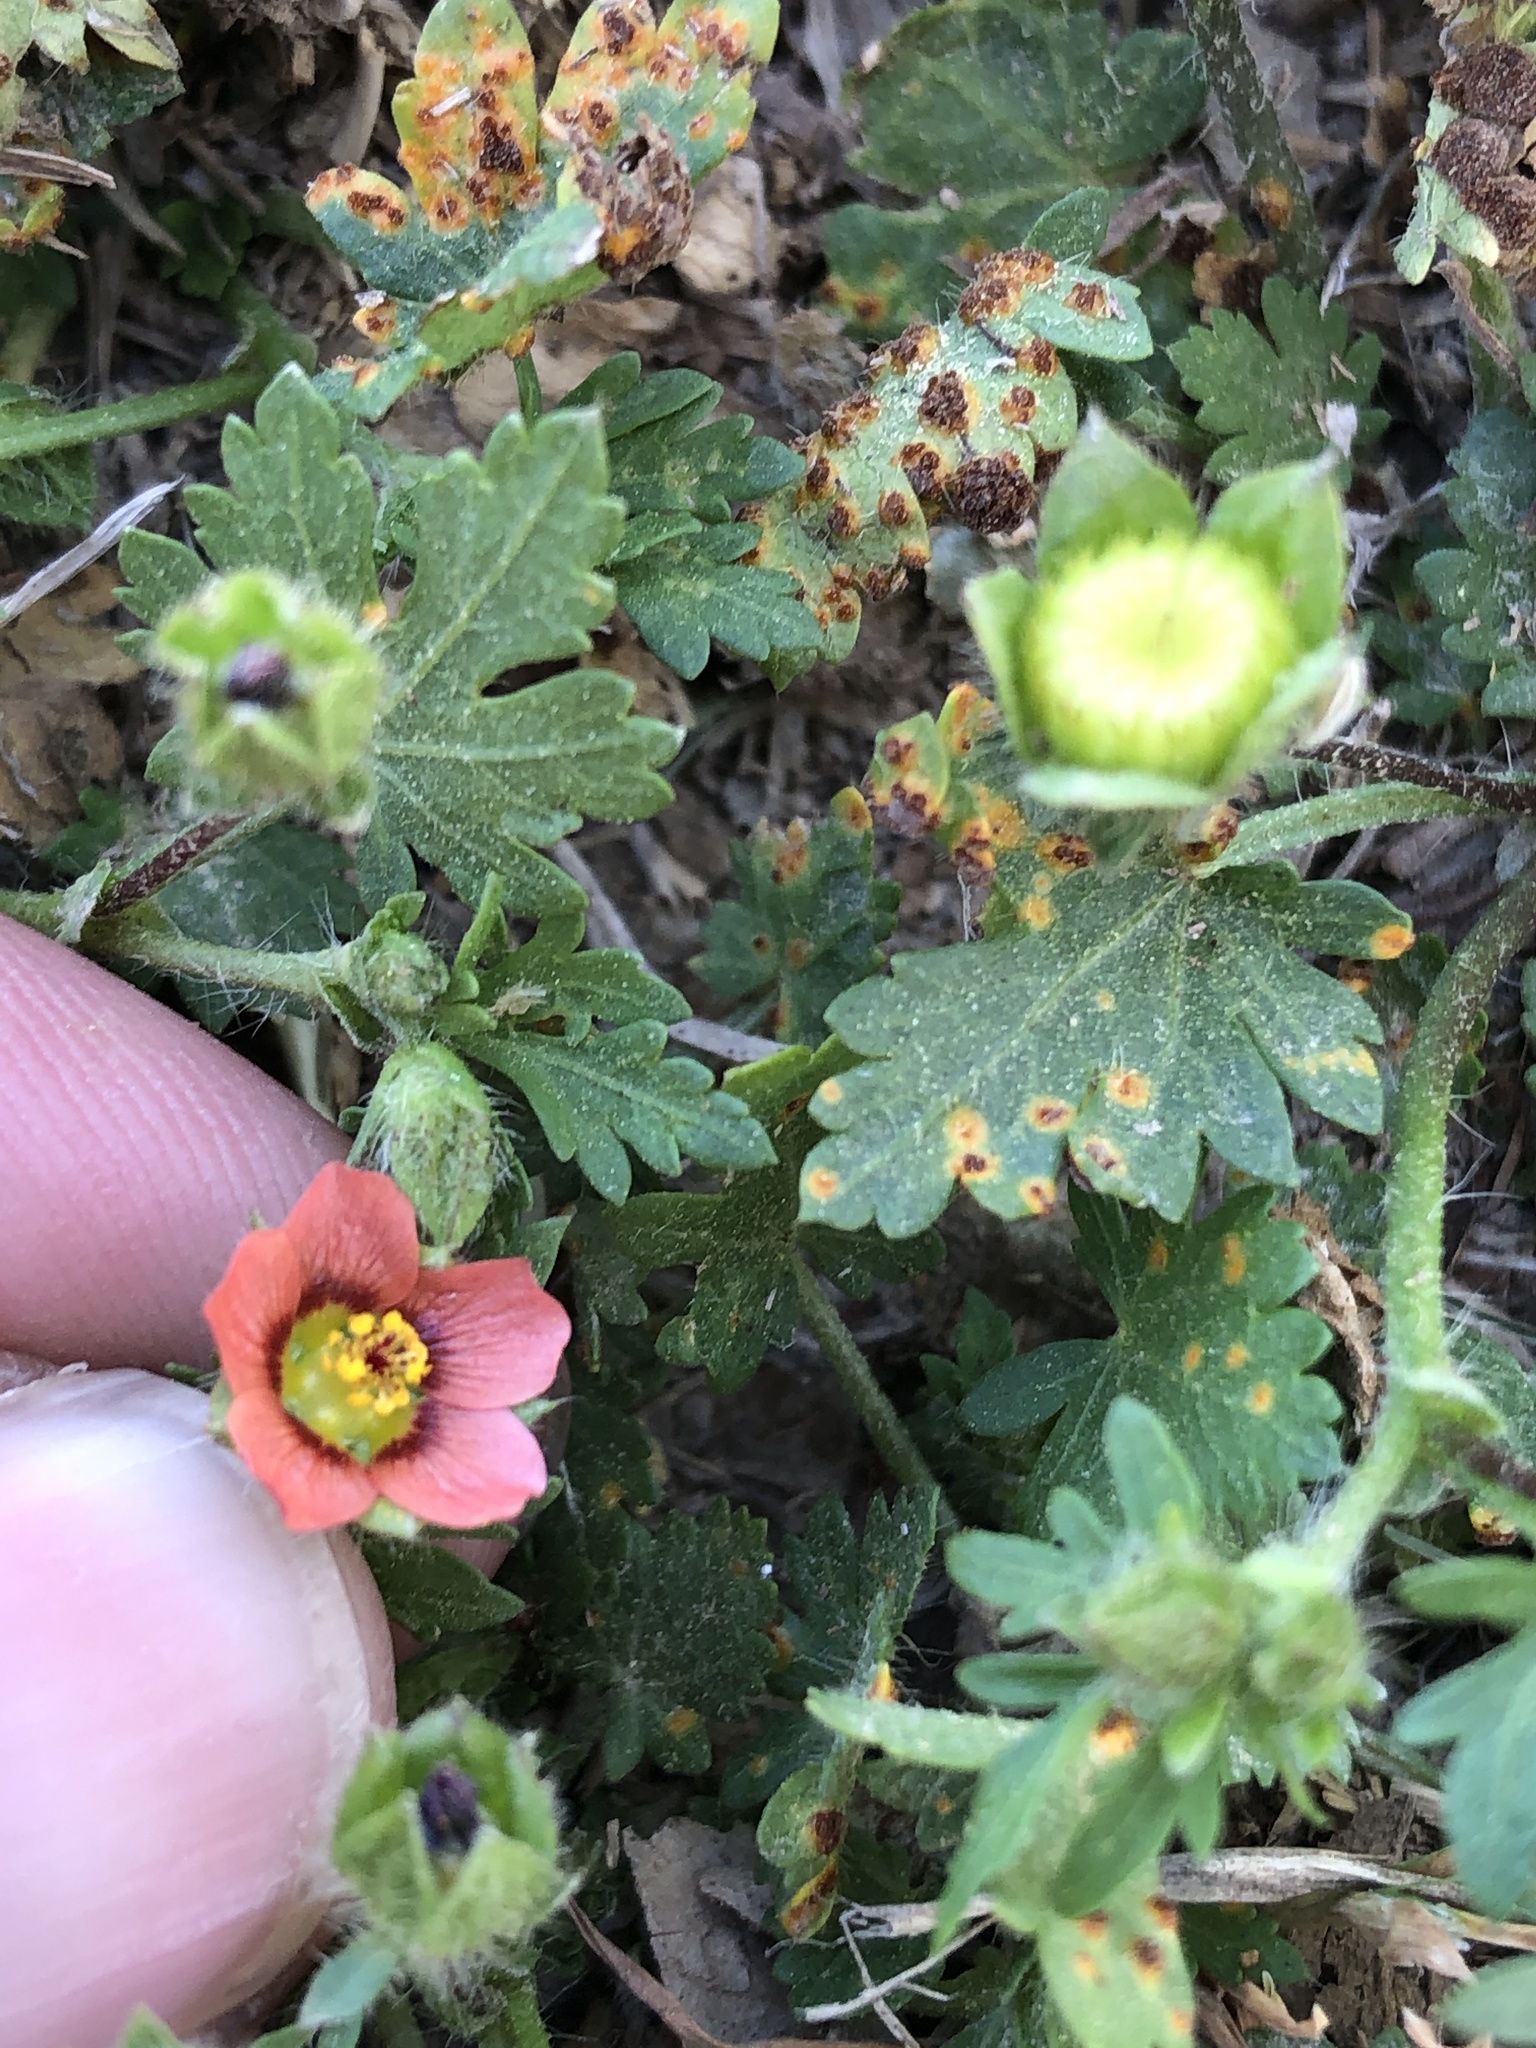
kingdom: Plantae
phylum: Tracheophyta
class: Magnoliopsida
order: Malvales
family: Malvaceae
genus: Modiola
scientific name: Modiola caroliniana
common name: Carolina bristlemallow
